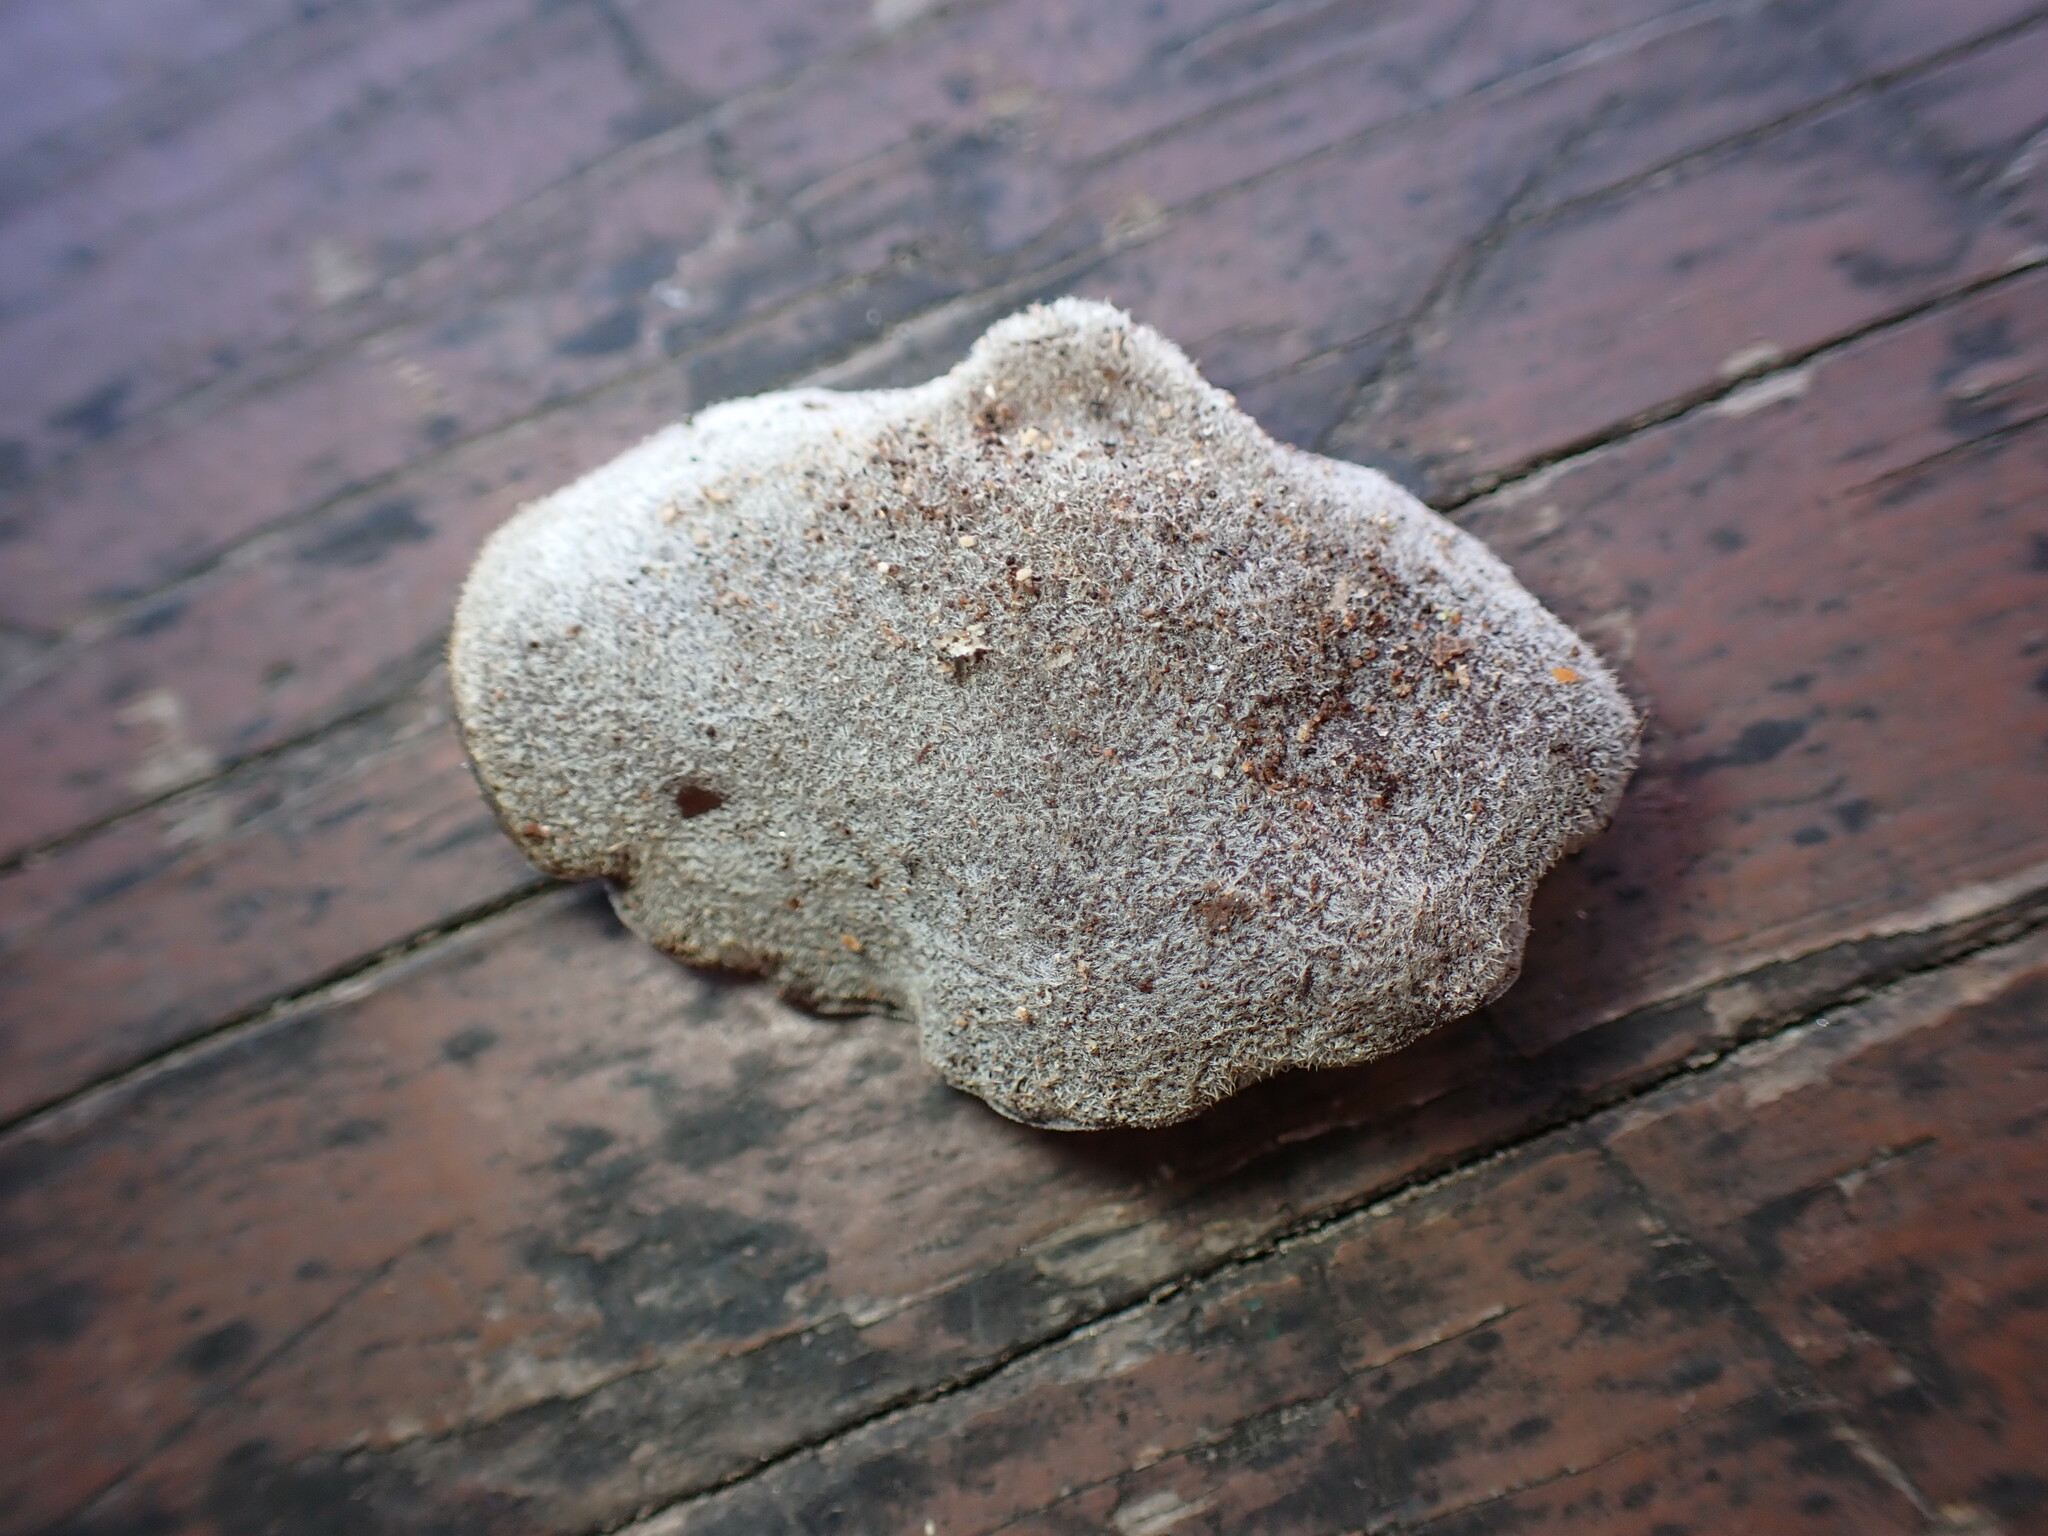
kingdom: Fungi
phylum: Basidiomycota
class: Agaricomycetes
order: Auriculariales
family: Auriculariaceae
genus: Auricularia
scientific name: Auricularia
